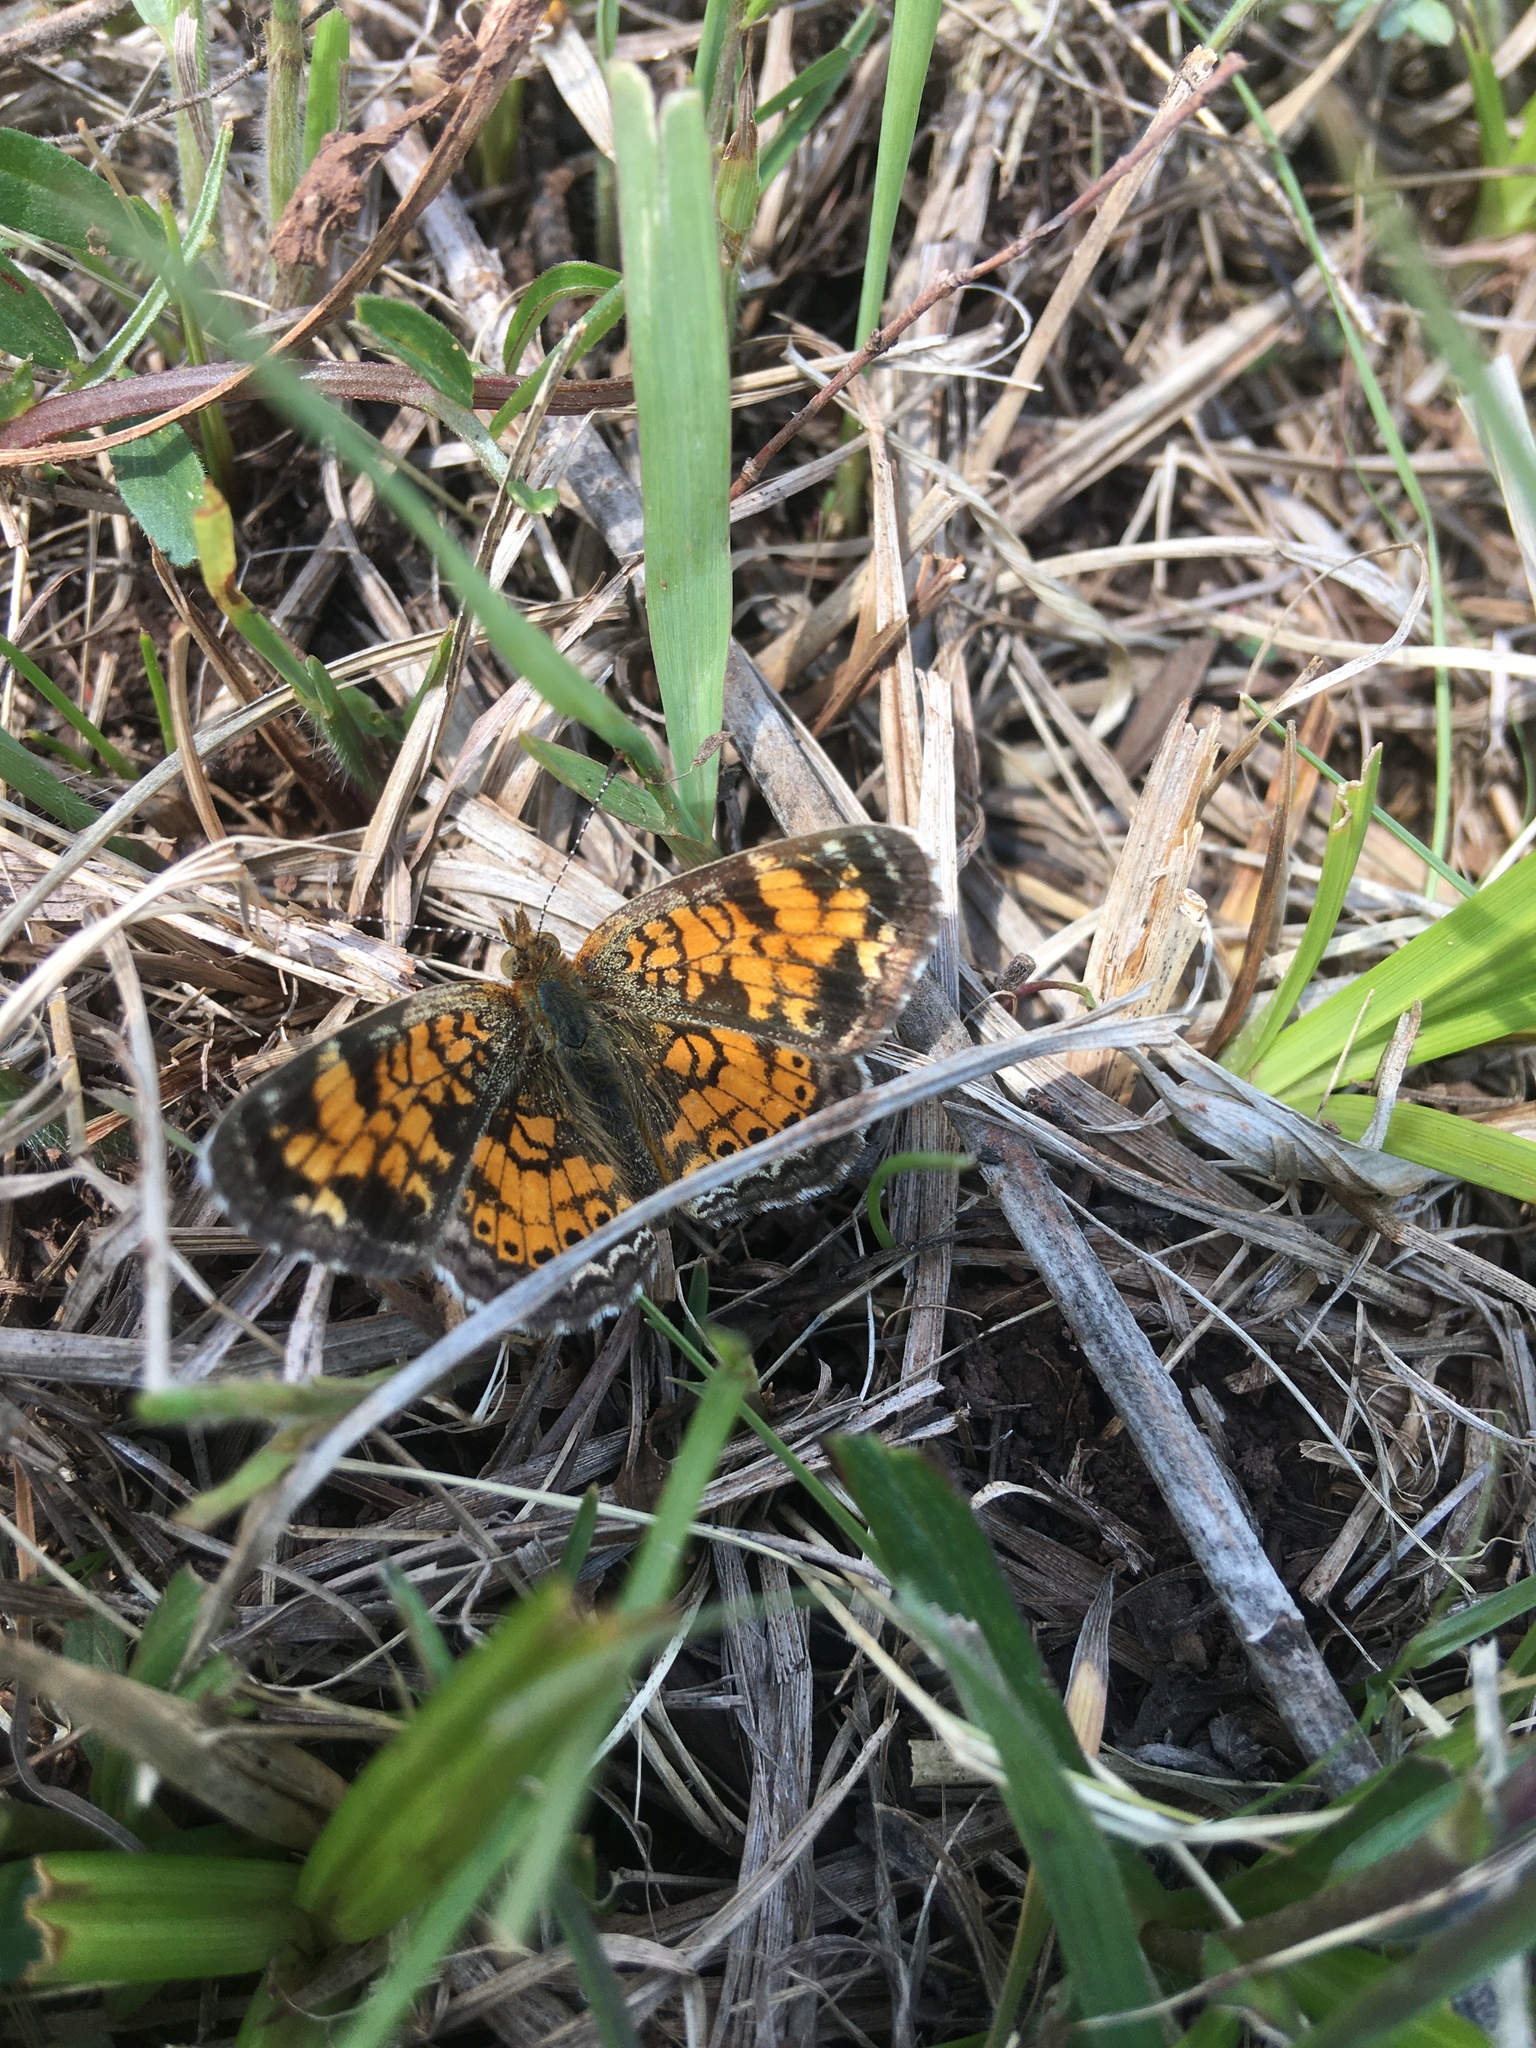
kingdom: Animalia
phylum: Arthropoda
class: Insecta
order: Lepidoptera
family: Nymphalidae
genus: Phyciodes
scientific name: Phyciodes tharos
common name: Pearl crescent
